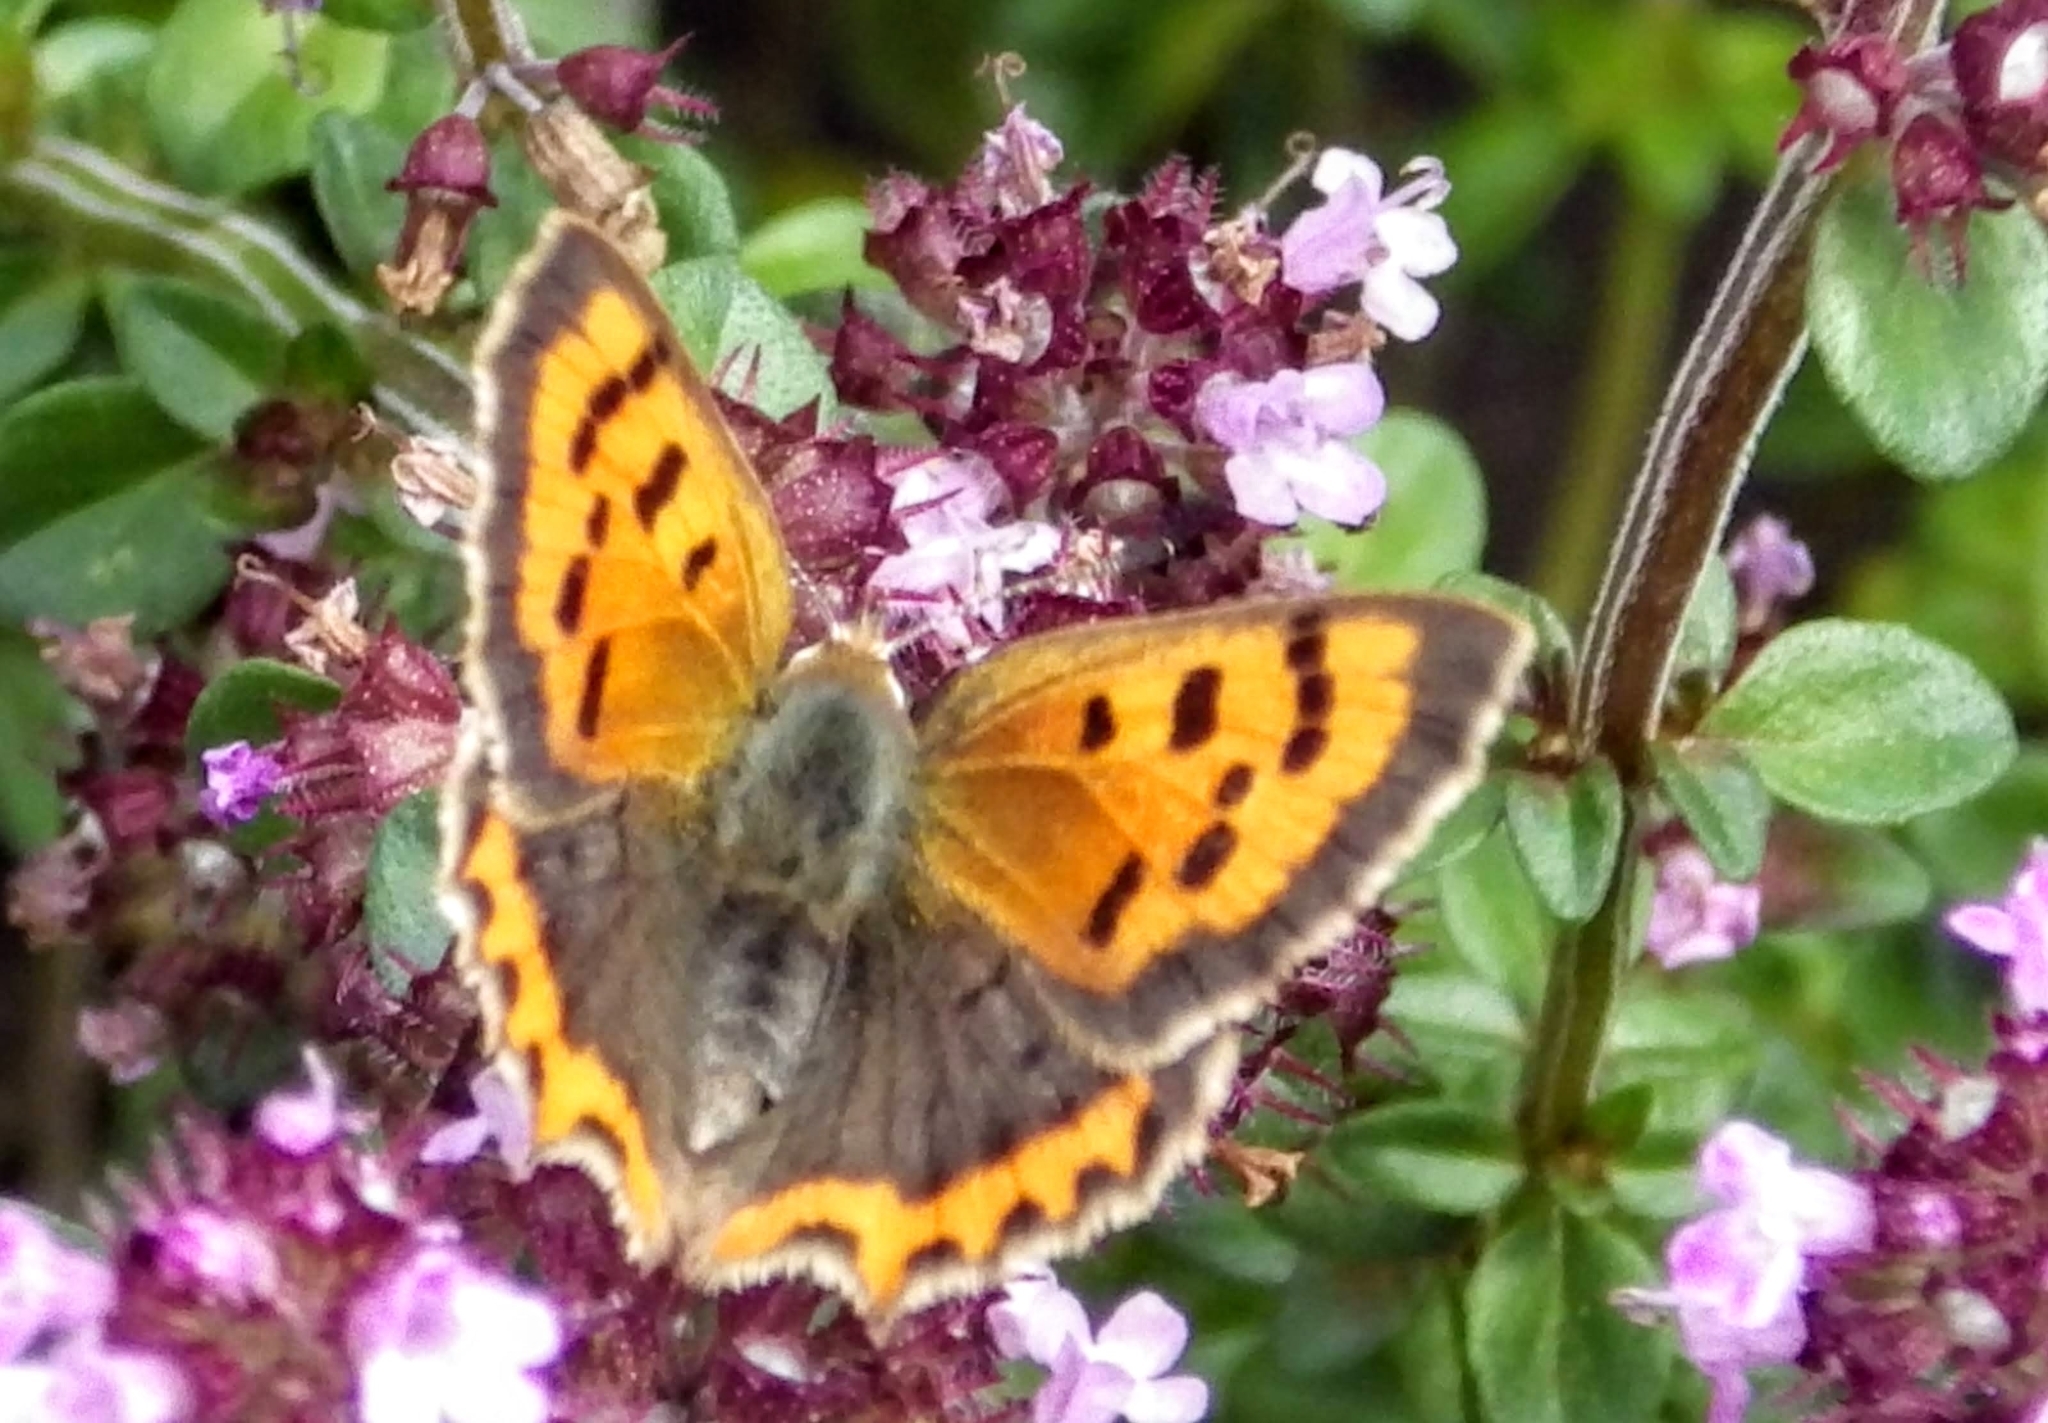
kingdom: Animalia
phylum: Arthropoda
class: Insecta
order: Lepidoptera
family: Lycaenidae
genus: Lycaena
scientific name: Lycaena phlaeas
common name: Small copper
